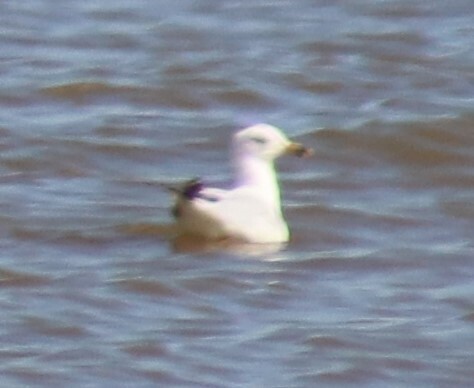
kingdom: Animalia
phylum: Chordata
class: Aves
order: Charadriiformes
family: Laridae
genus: Larus
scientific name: Larus delawarensis
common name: Ring-billed gull
